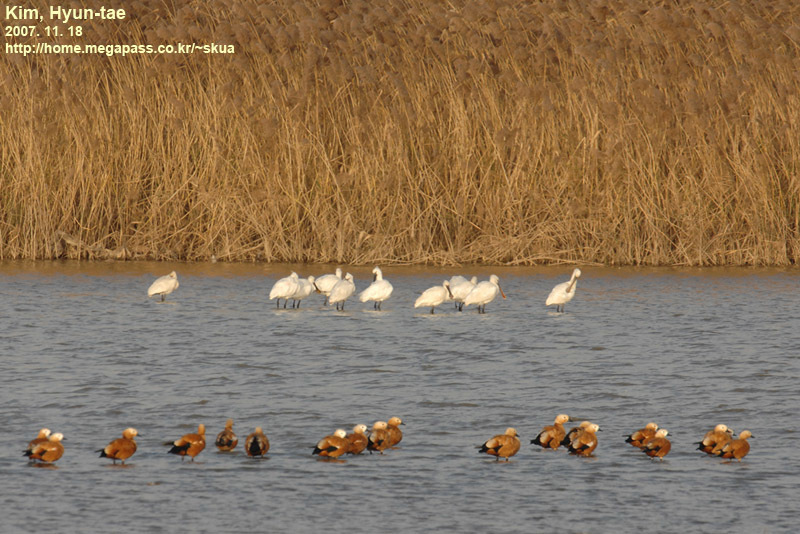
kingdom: Animalia
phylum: Chordata
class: Aves
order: Pelecaniformes
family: Threskiornithidae
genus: Platalea
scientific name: Platalea leucorodia
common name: Eurasian spoonbill
